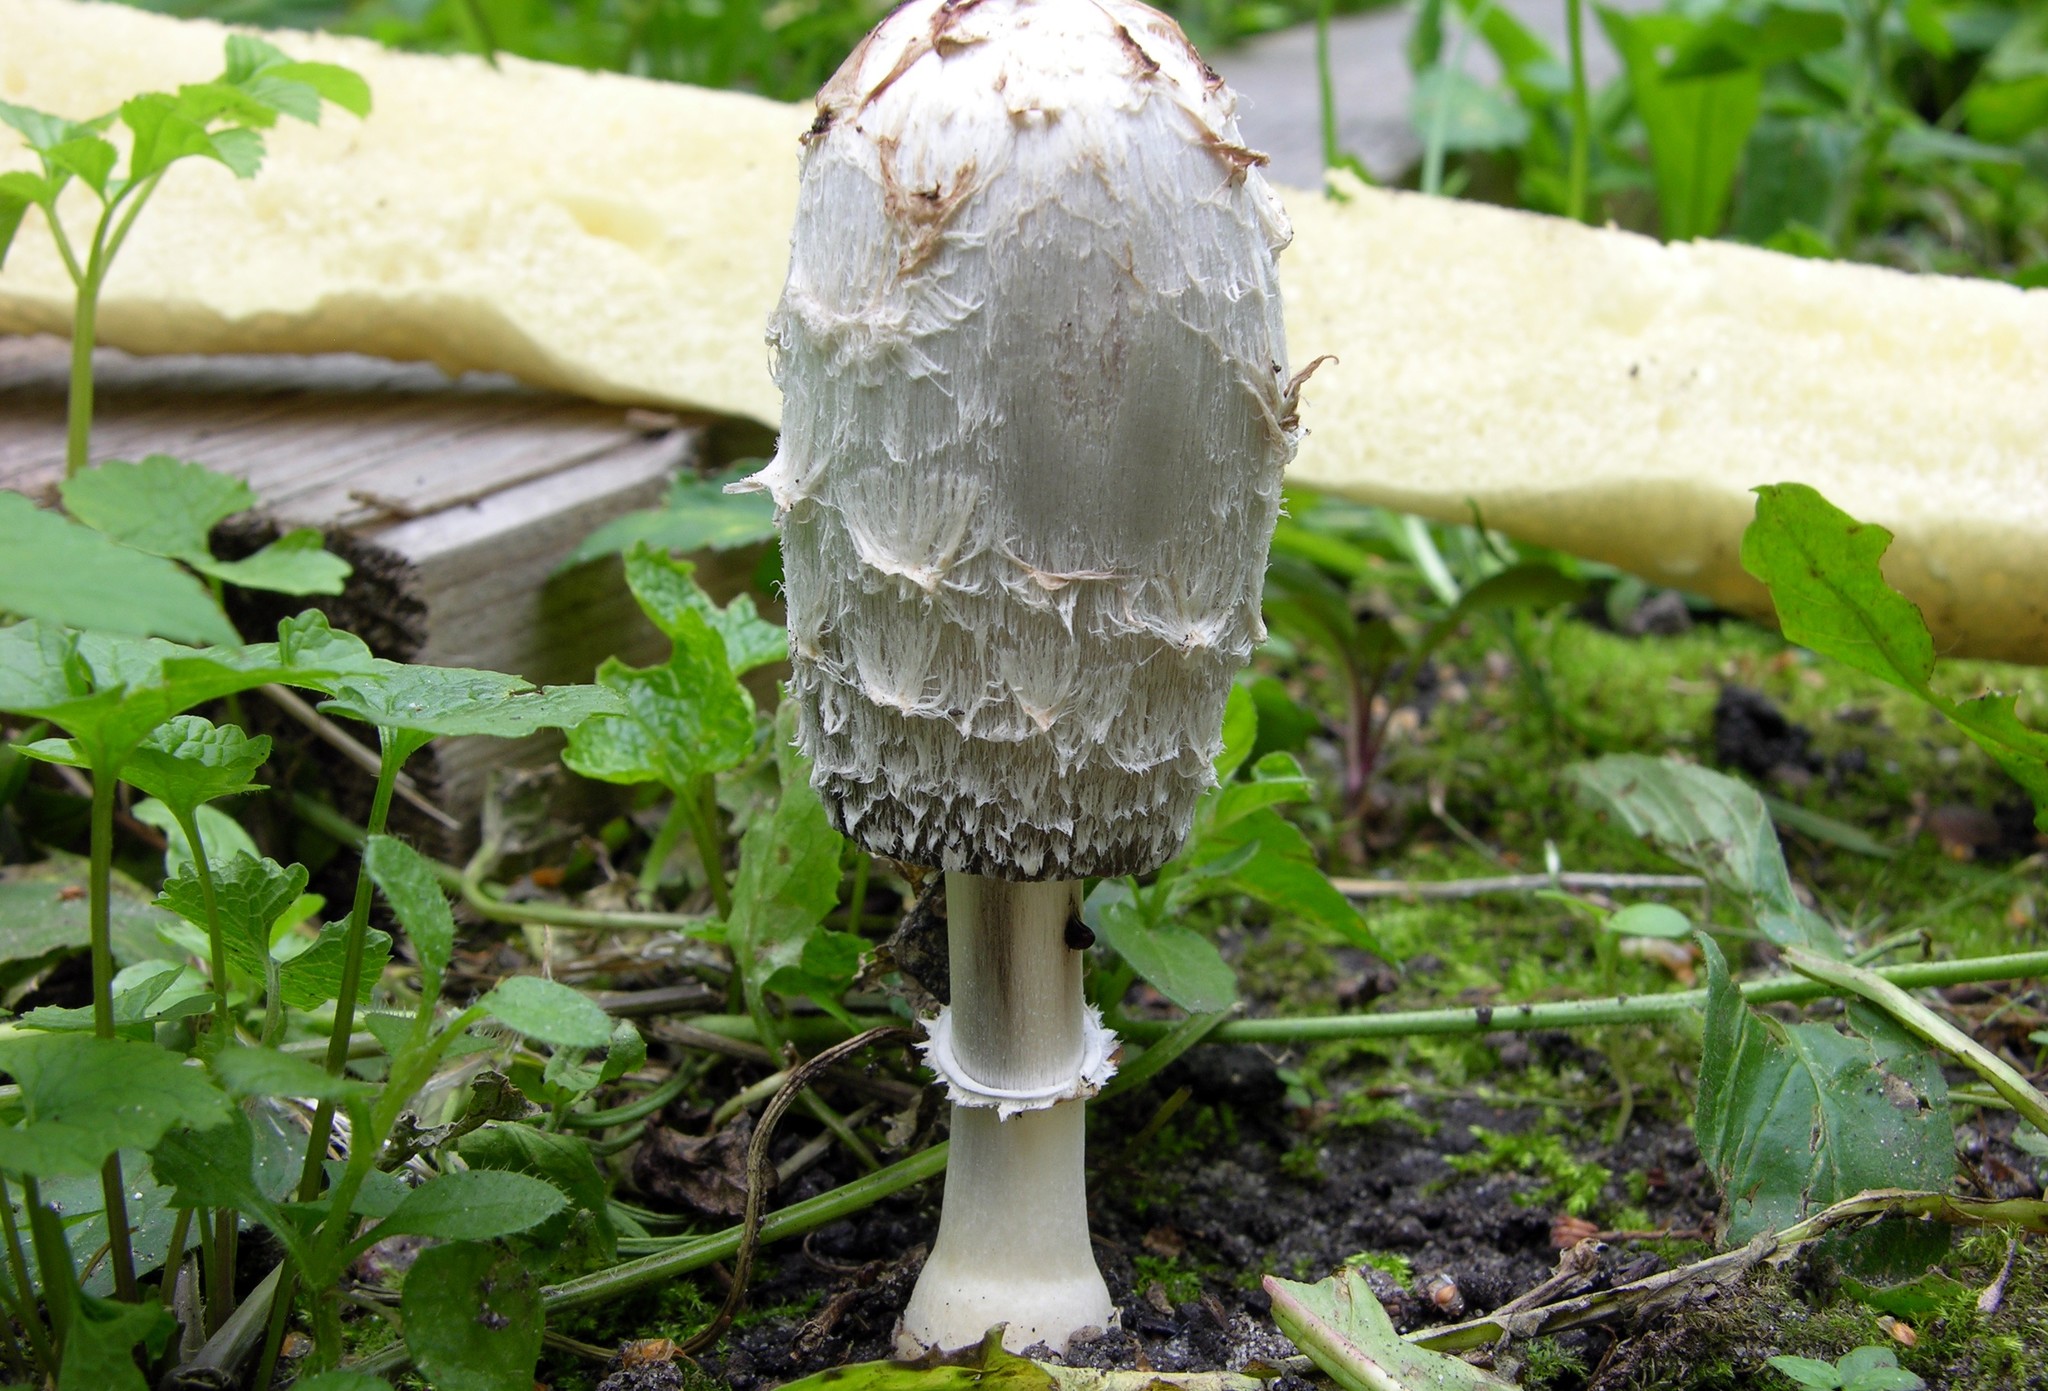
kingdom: Fungi
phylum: Basidiomycota
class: Agaricomycetes
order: Agaricales
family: Agaricaceae
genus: Coprinus
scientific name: Coprinus comatus
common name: Lawyer's wig
